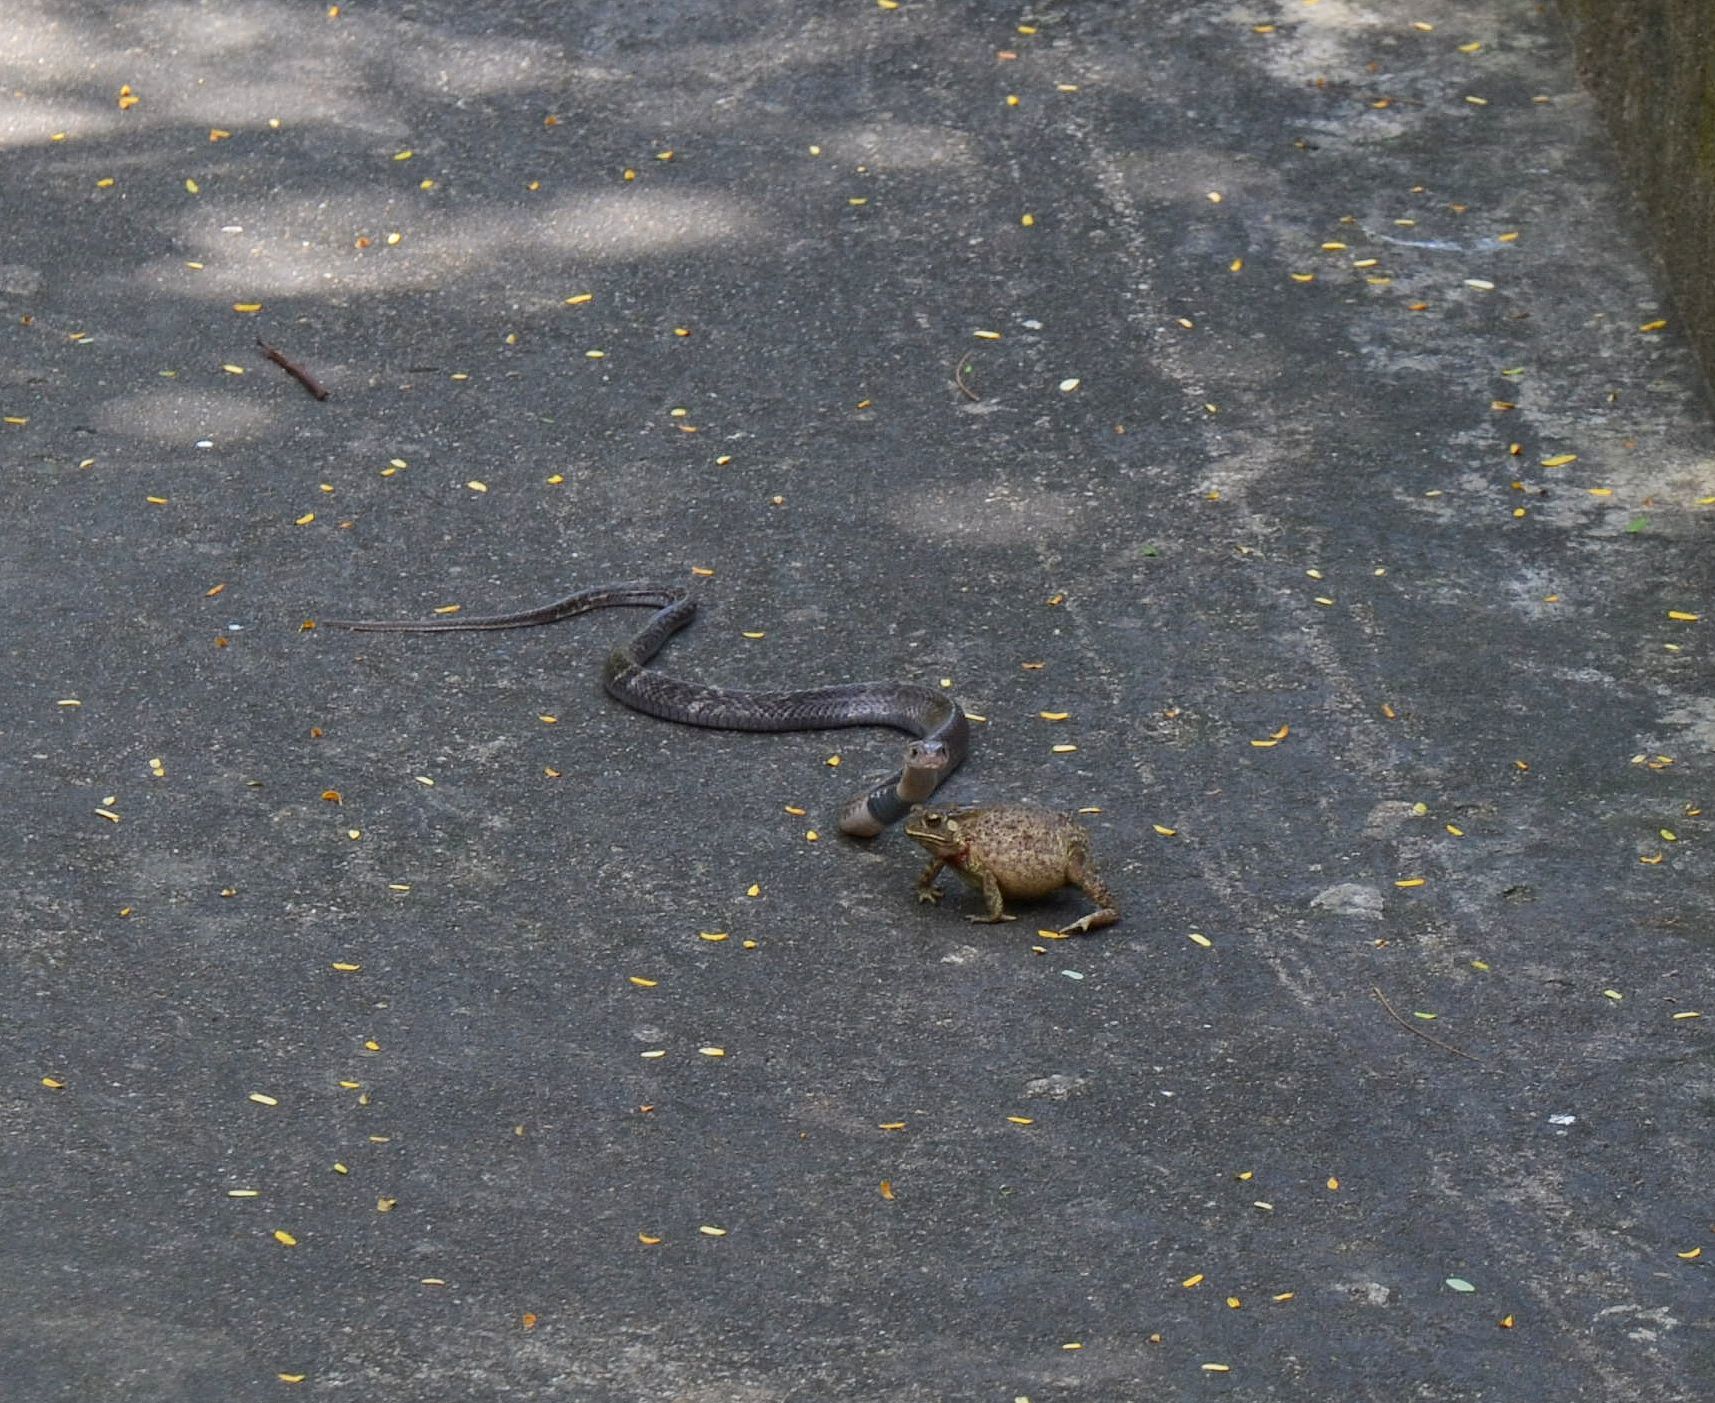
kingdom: Animalia
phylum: Chordata
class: Squamata
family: Elapidae
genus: Naja
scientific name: Naja atra
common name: Chinese cobra
